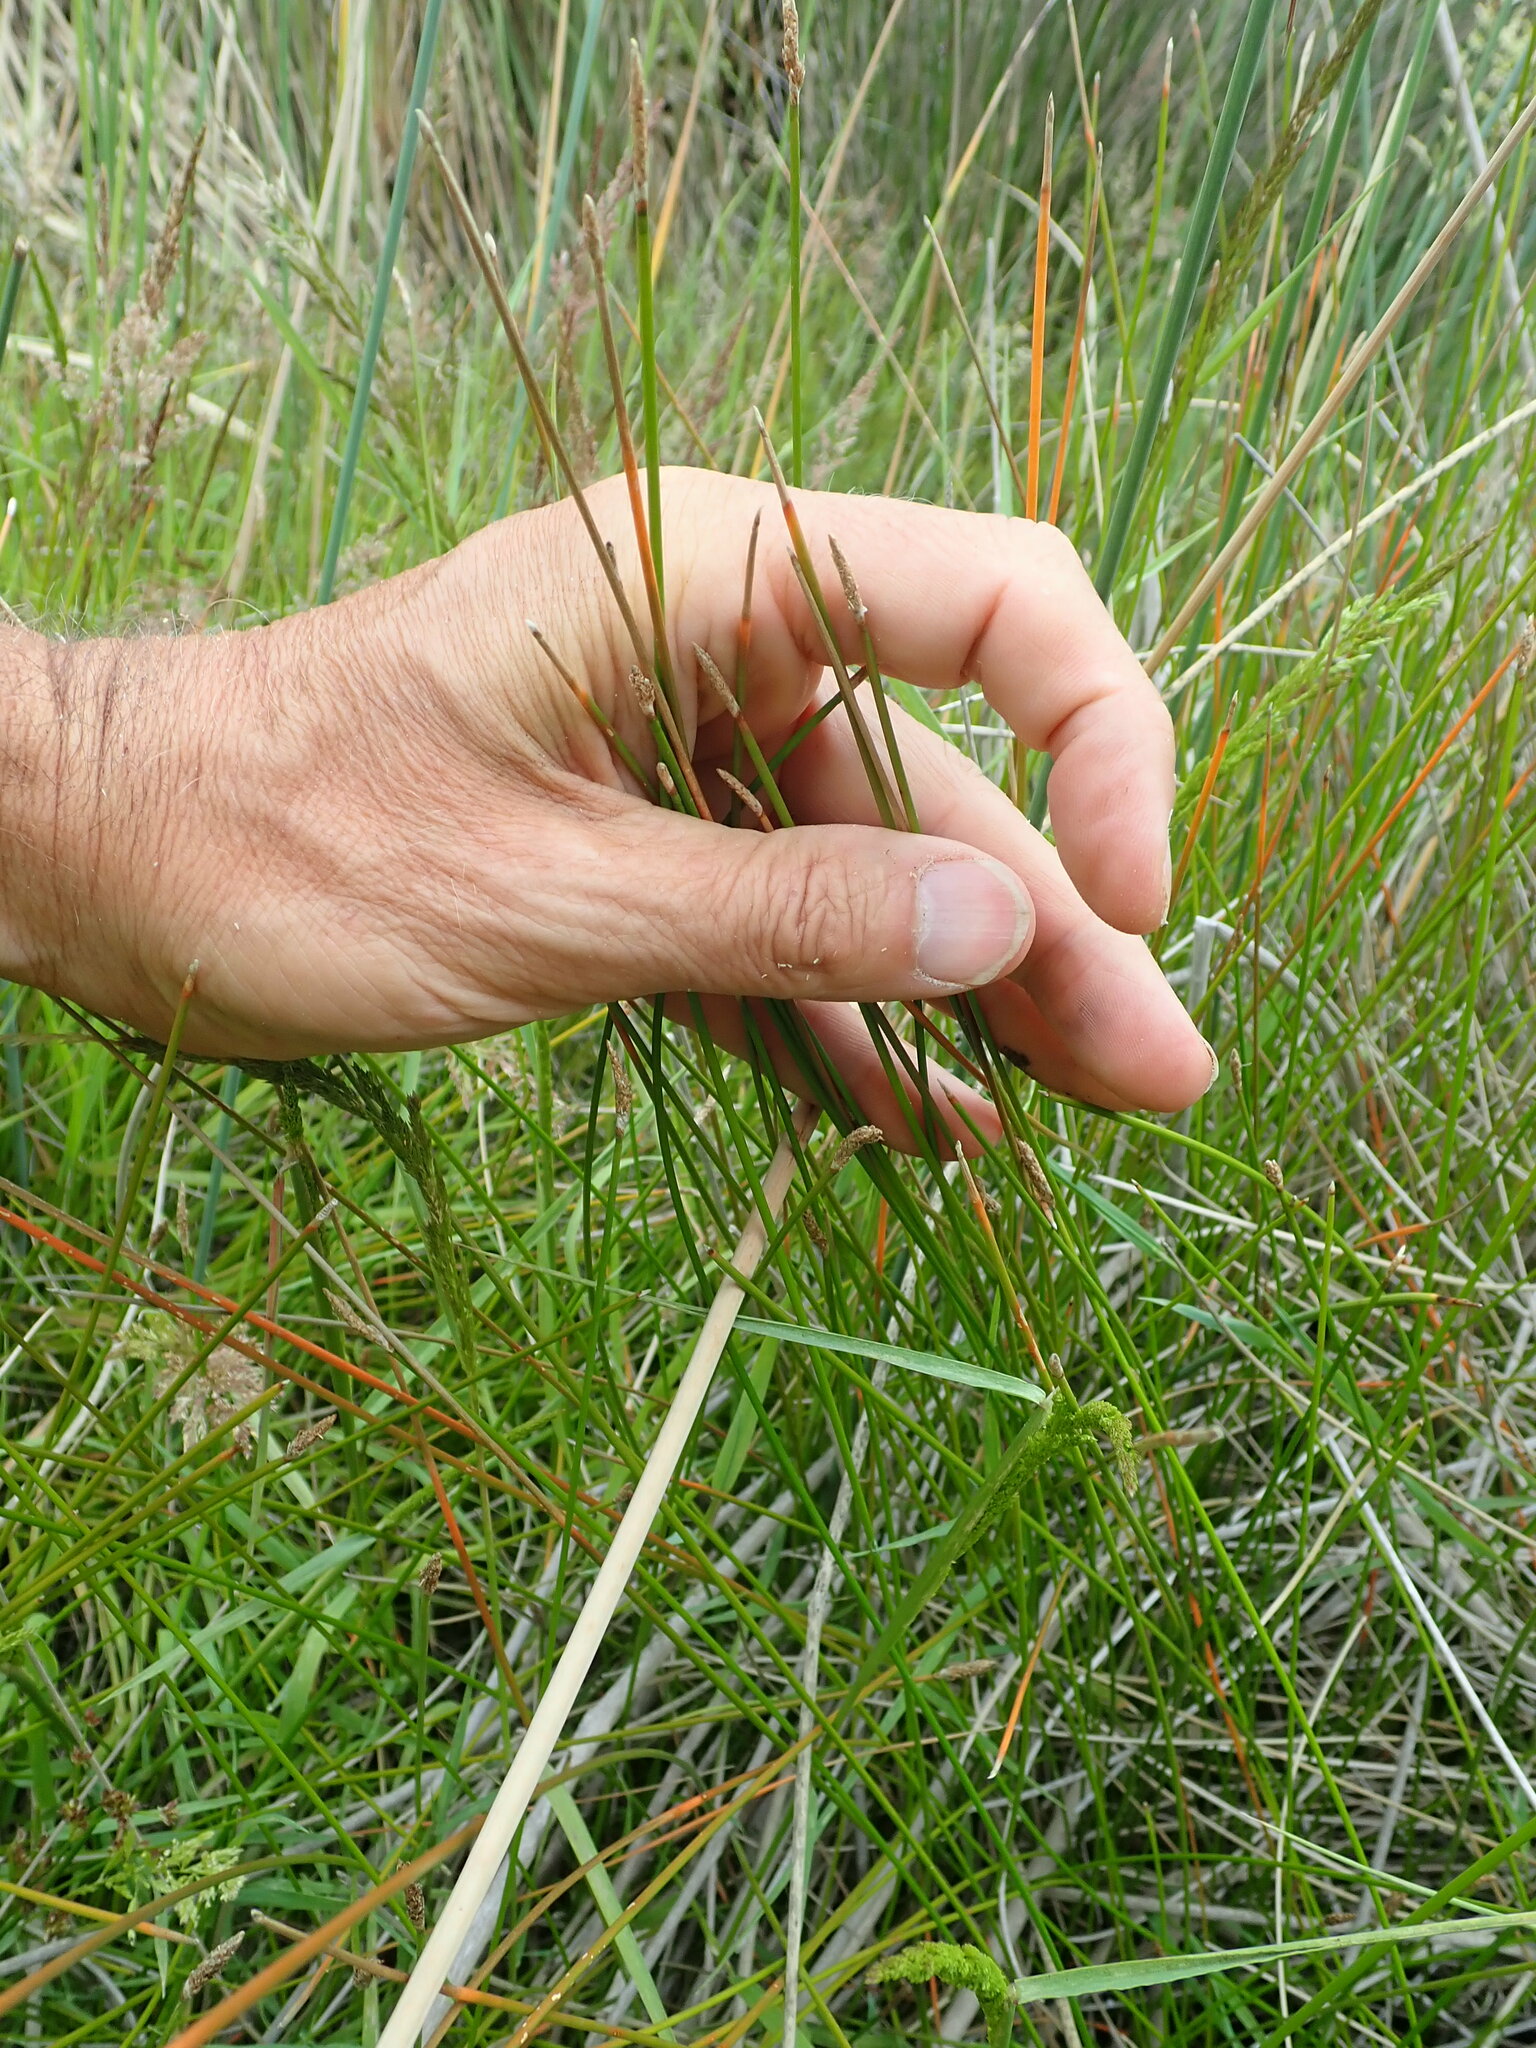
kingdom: Plantae
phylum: Tracheophyta
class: Liliopsida
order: Poales
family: Cyperaceae
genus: Eleocharis
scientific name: Eleocharis acuta
